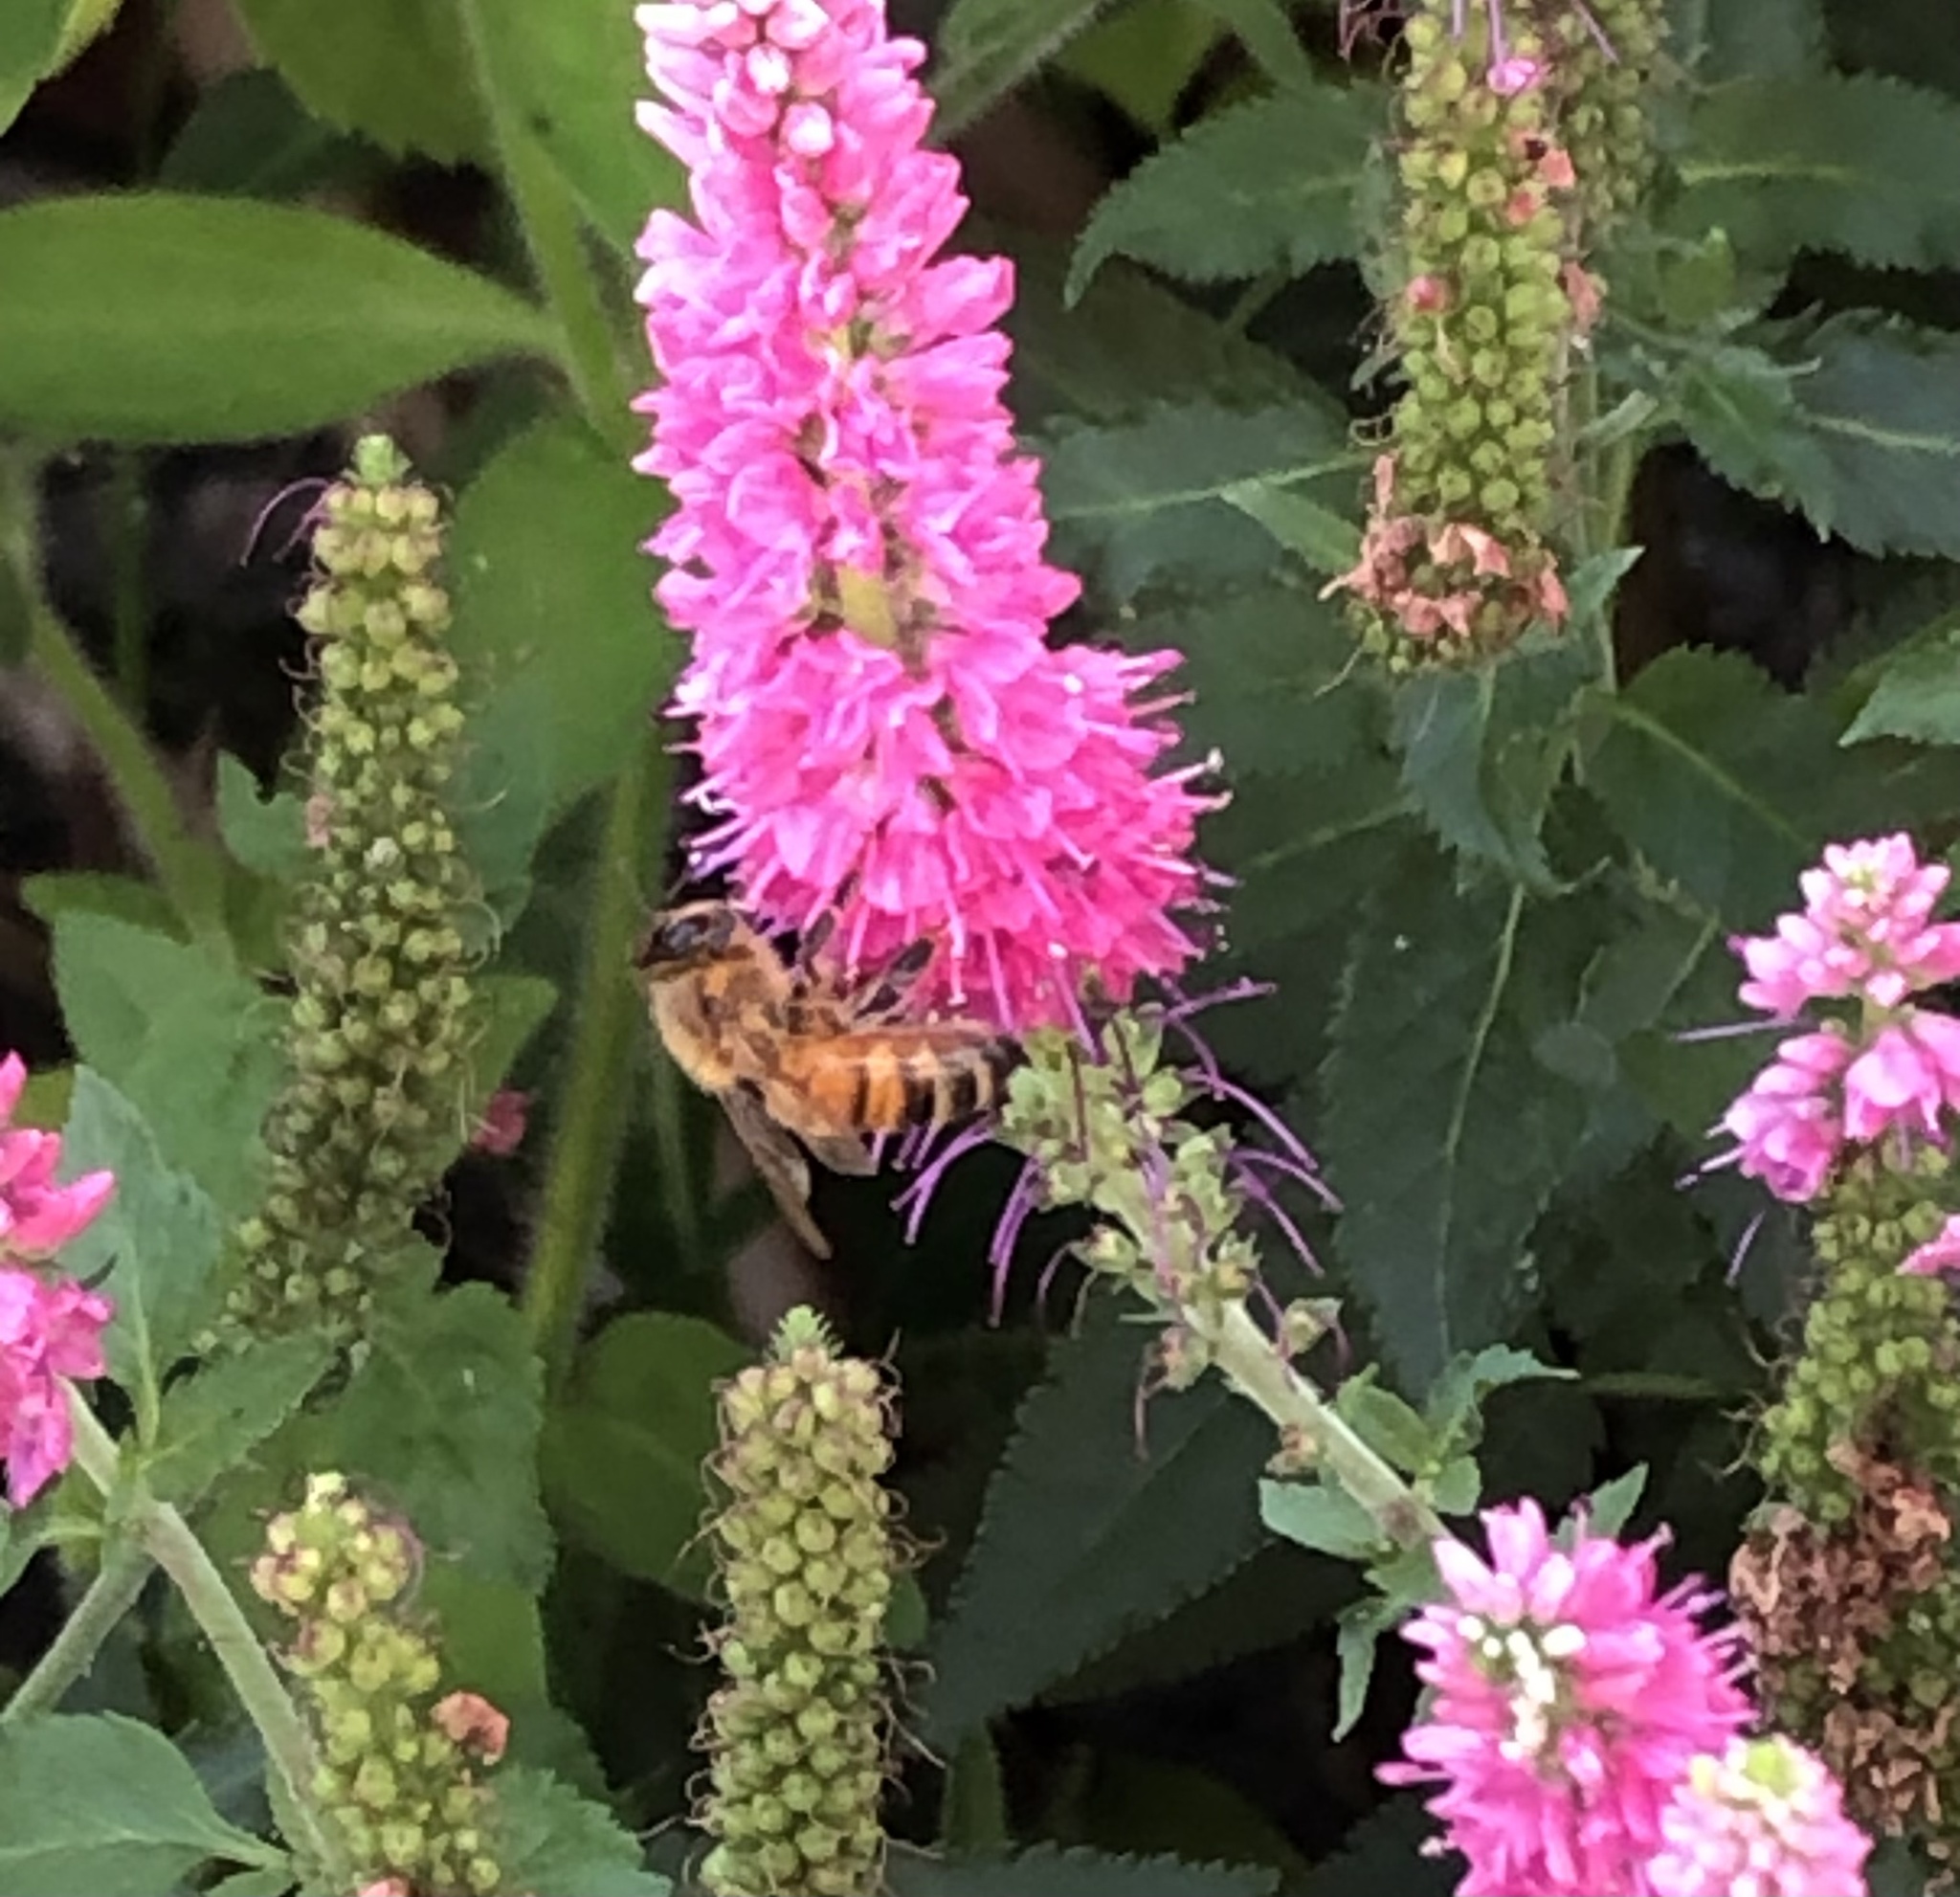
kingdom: Animalia
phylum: Arthropoda
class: Insecta
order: Hymenoptera
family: Apidae
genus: Apis
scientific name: Apis mellifera
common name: Honey bee
